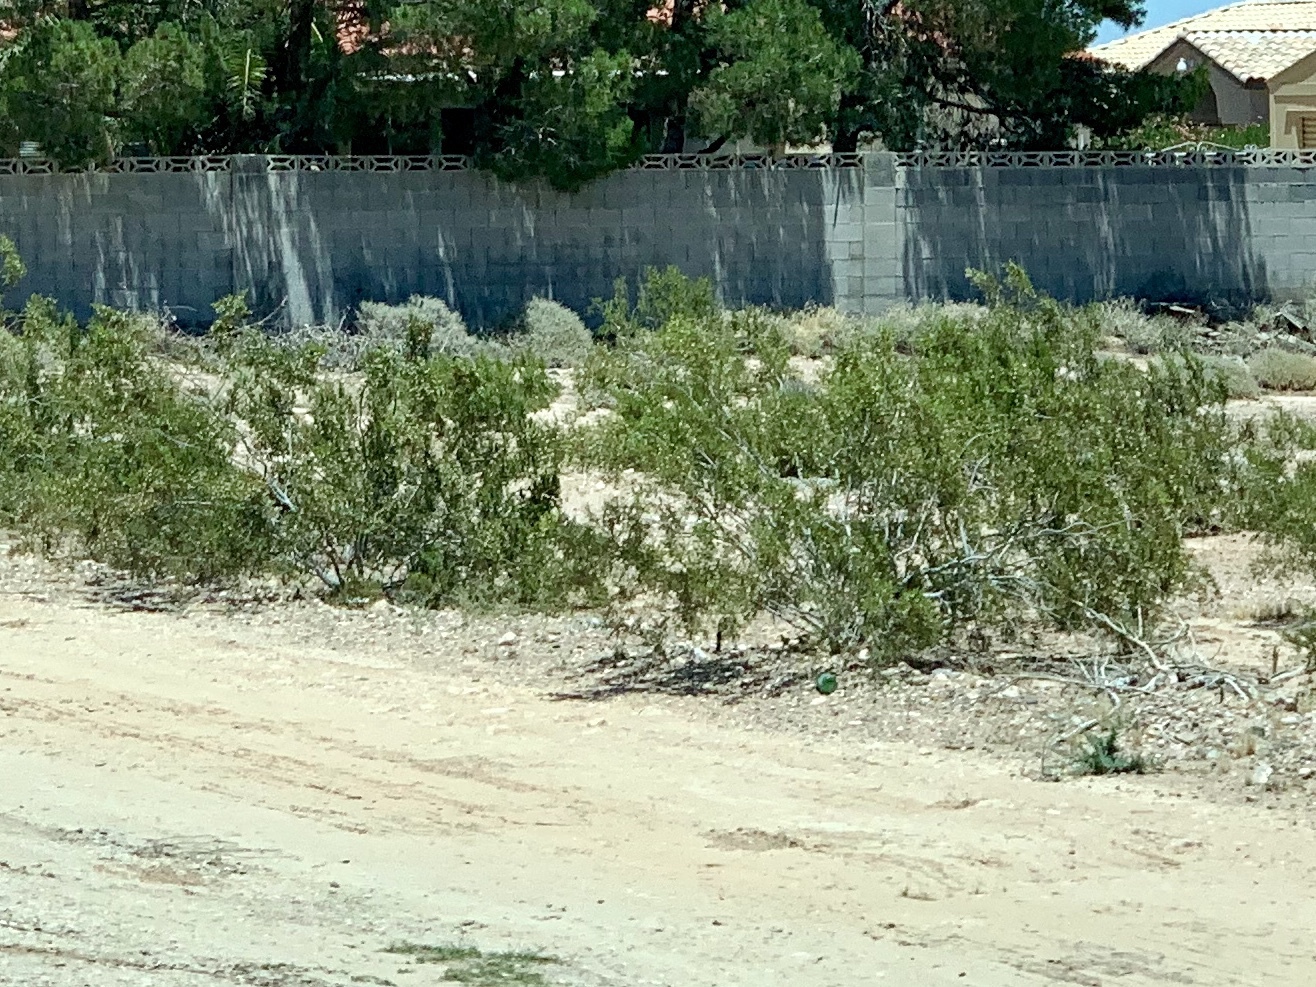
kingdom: Plantae
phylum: Tracheophyta
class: Magnoliopsida
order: Zygophyllales
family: Zygophyllaceae
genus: Larrea
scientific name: Larrea tridentata
